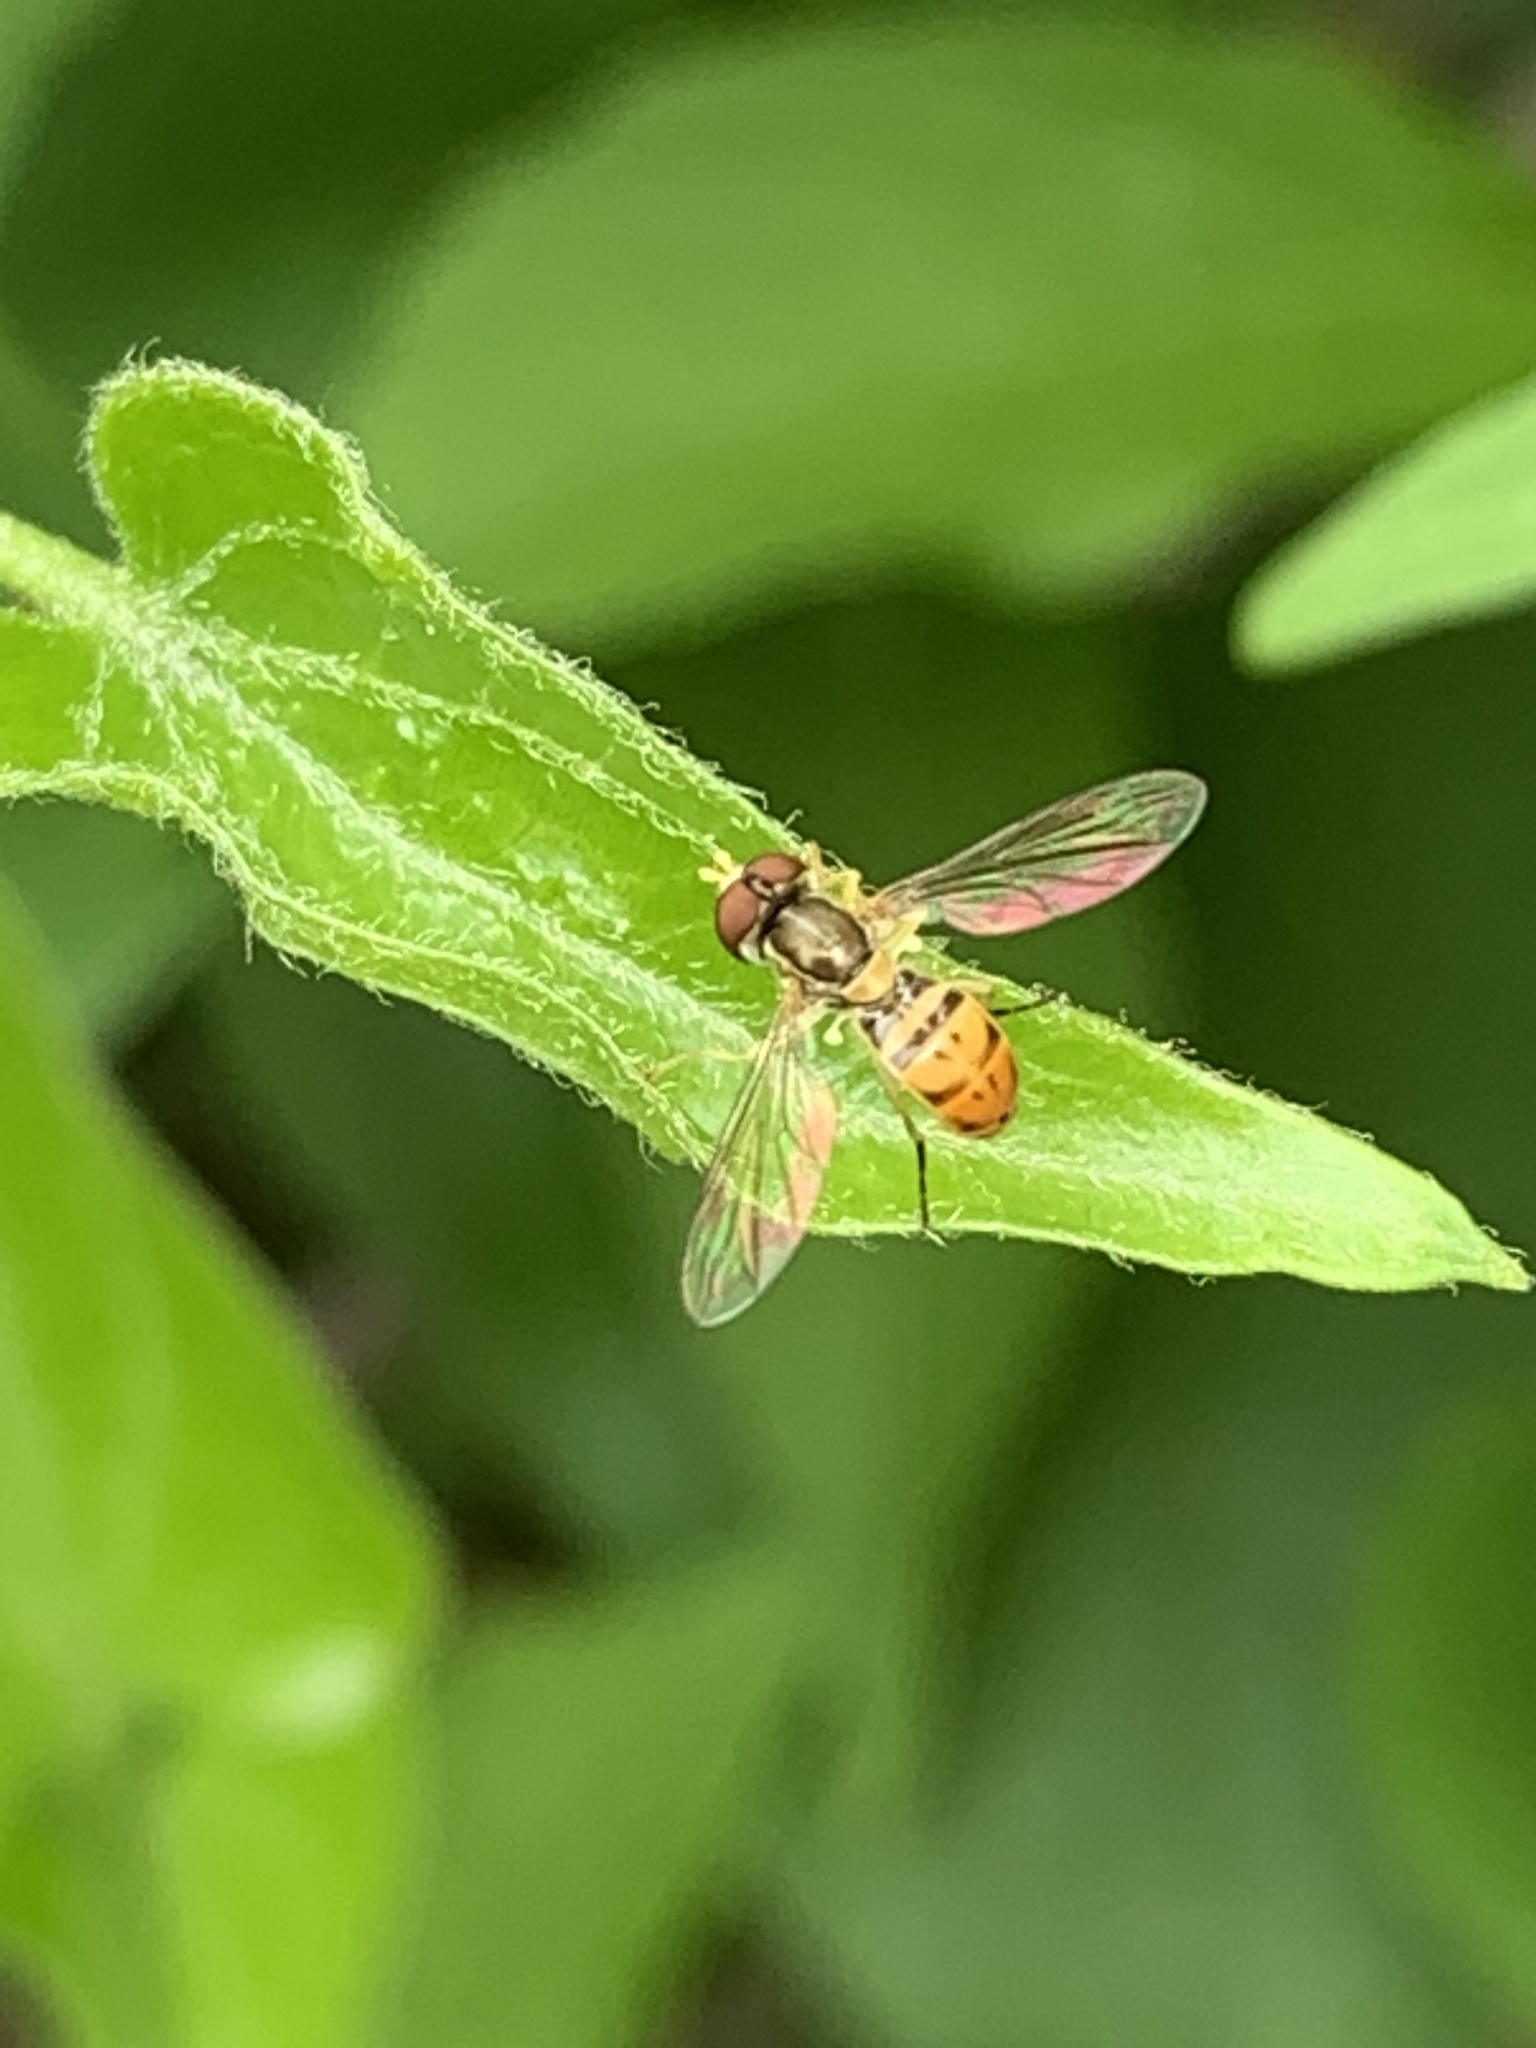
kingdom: Animalia
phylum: Arthropoda
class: Insecta
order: Diptera
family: Syrphidae
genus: Toxomerus
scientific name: Toxomerus marginatus
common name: Syrphid fly
